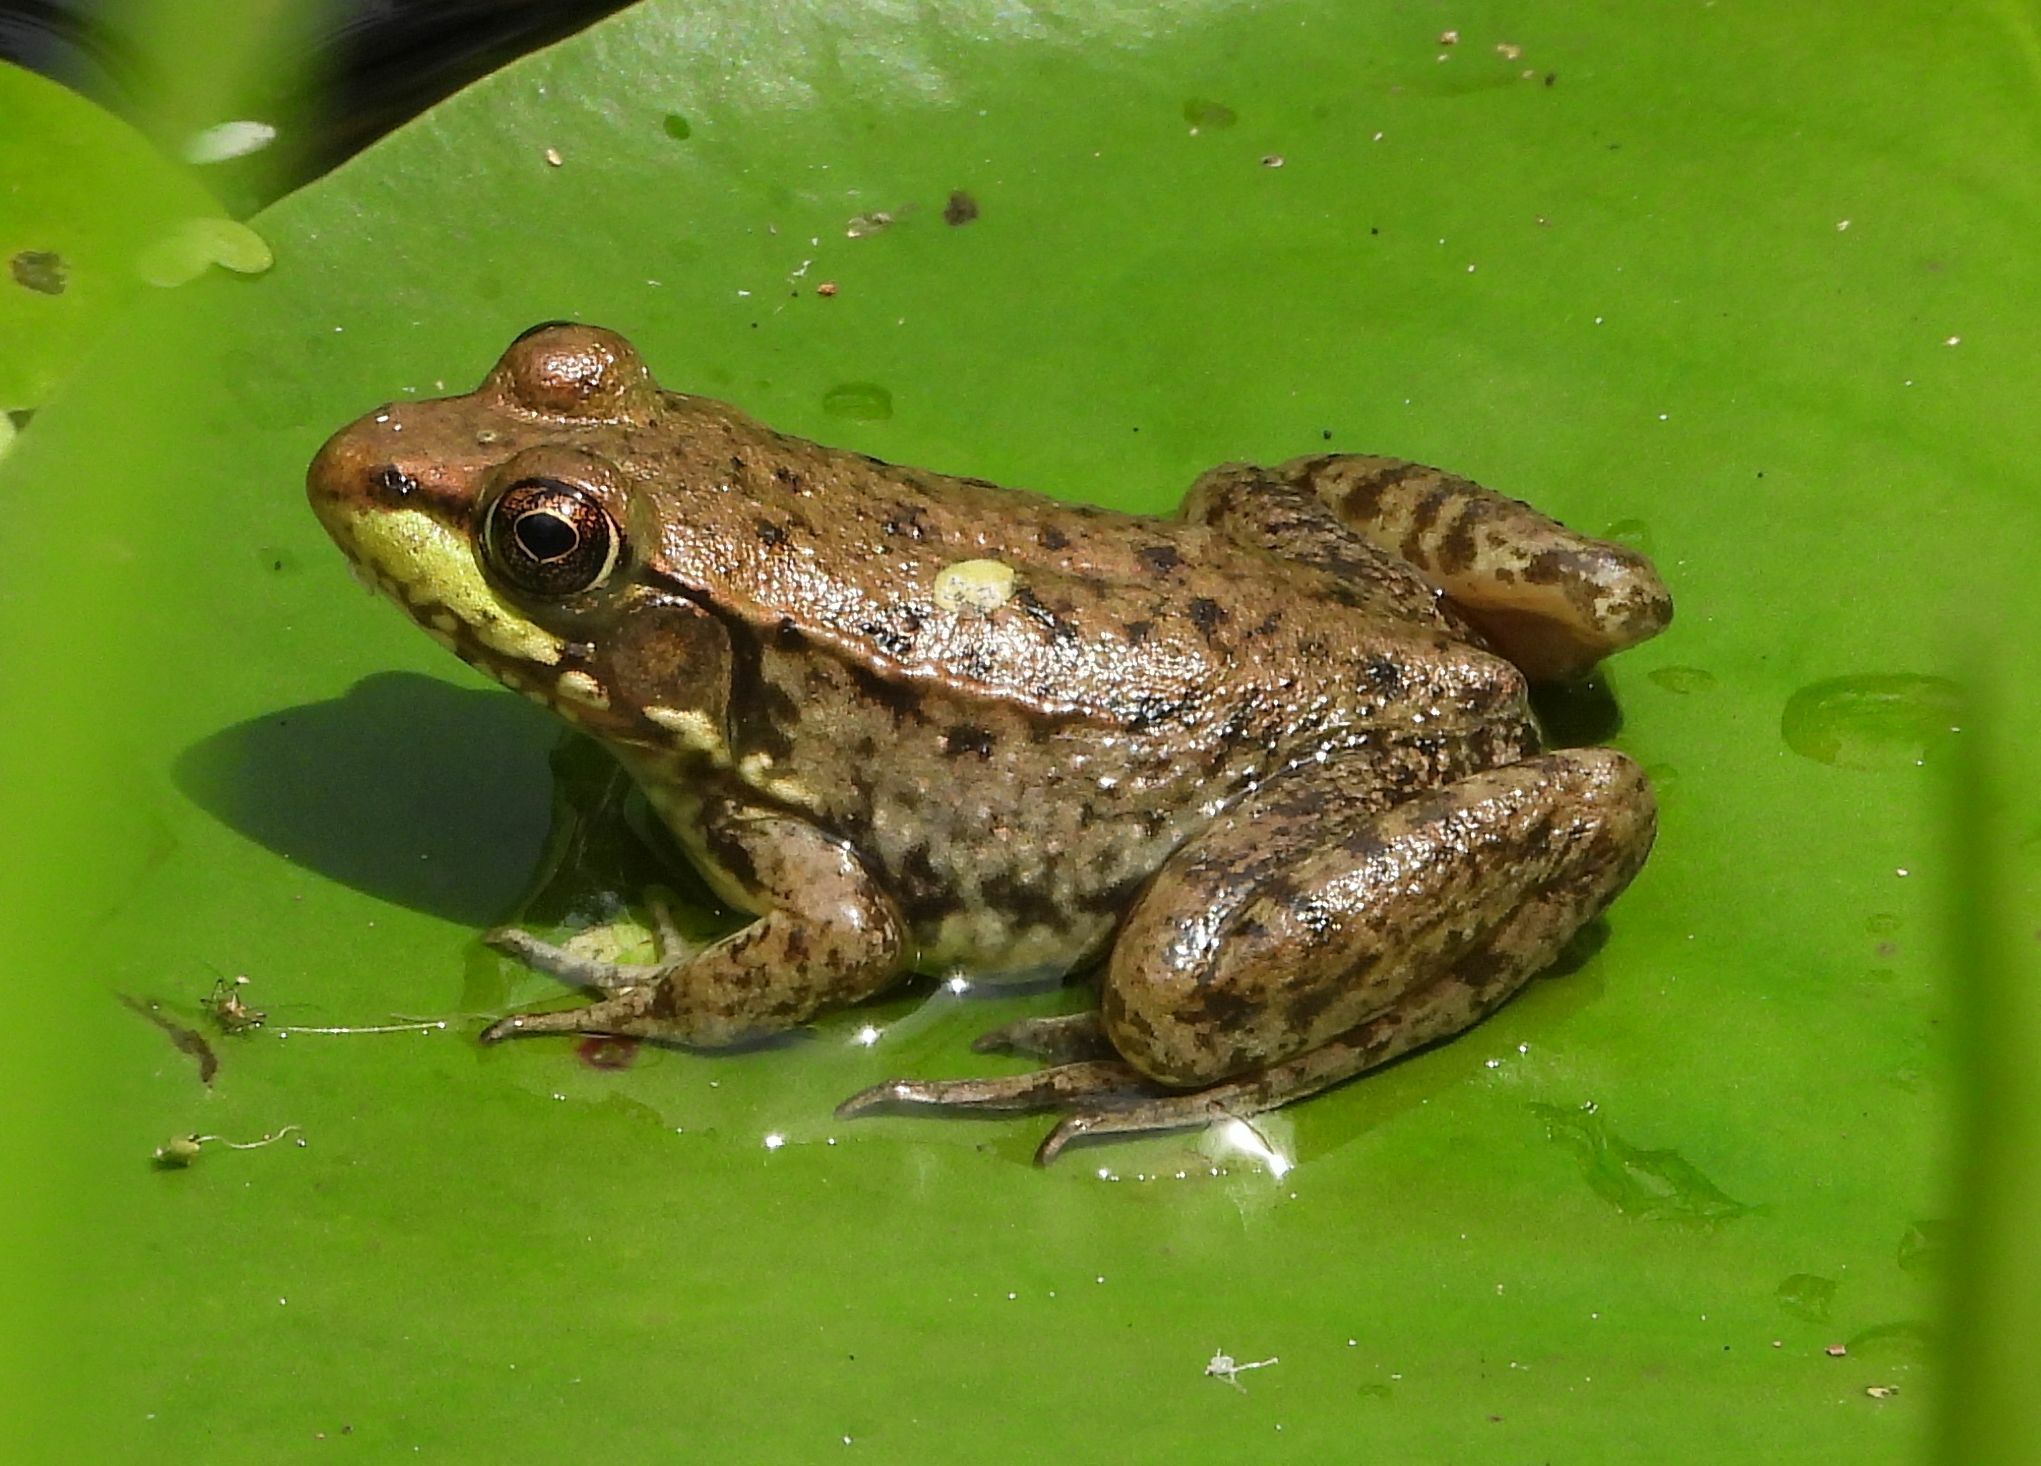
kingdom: Animalia
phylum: Chordata
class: Amphibia
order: Anura
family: Ranidae
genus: Lithobates
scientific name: Lithobates clamitans
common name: Green frog
